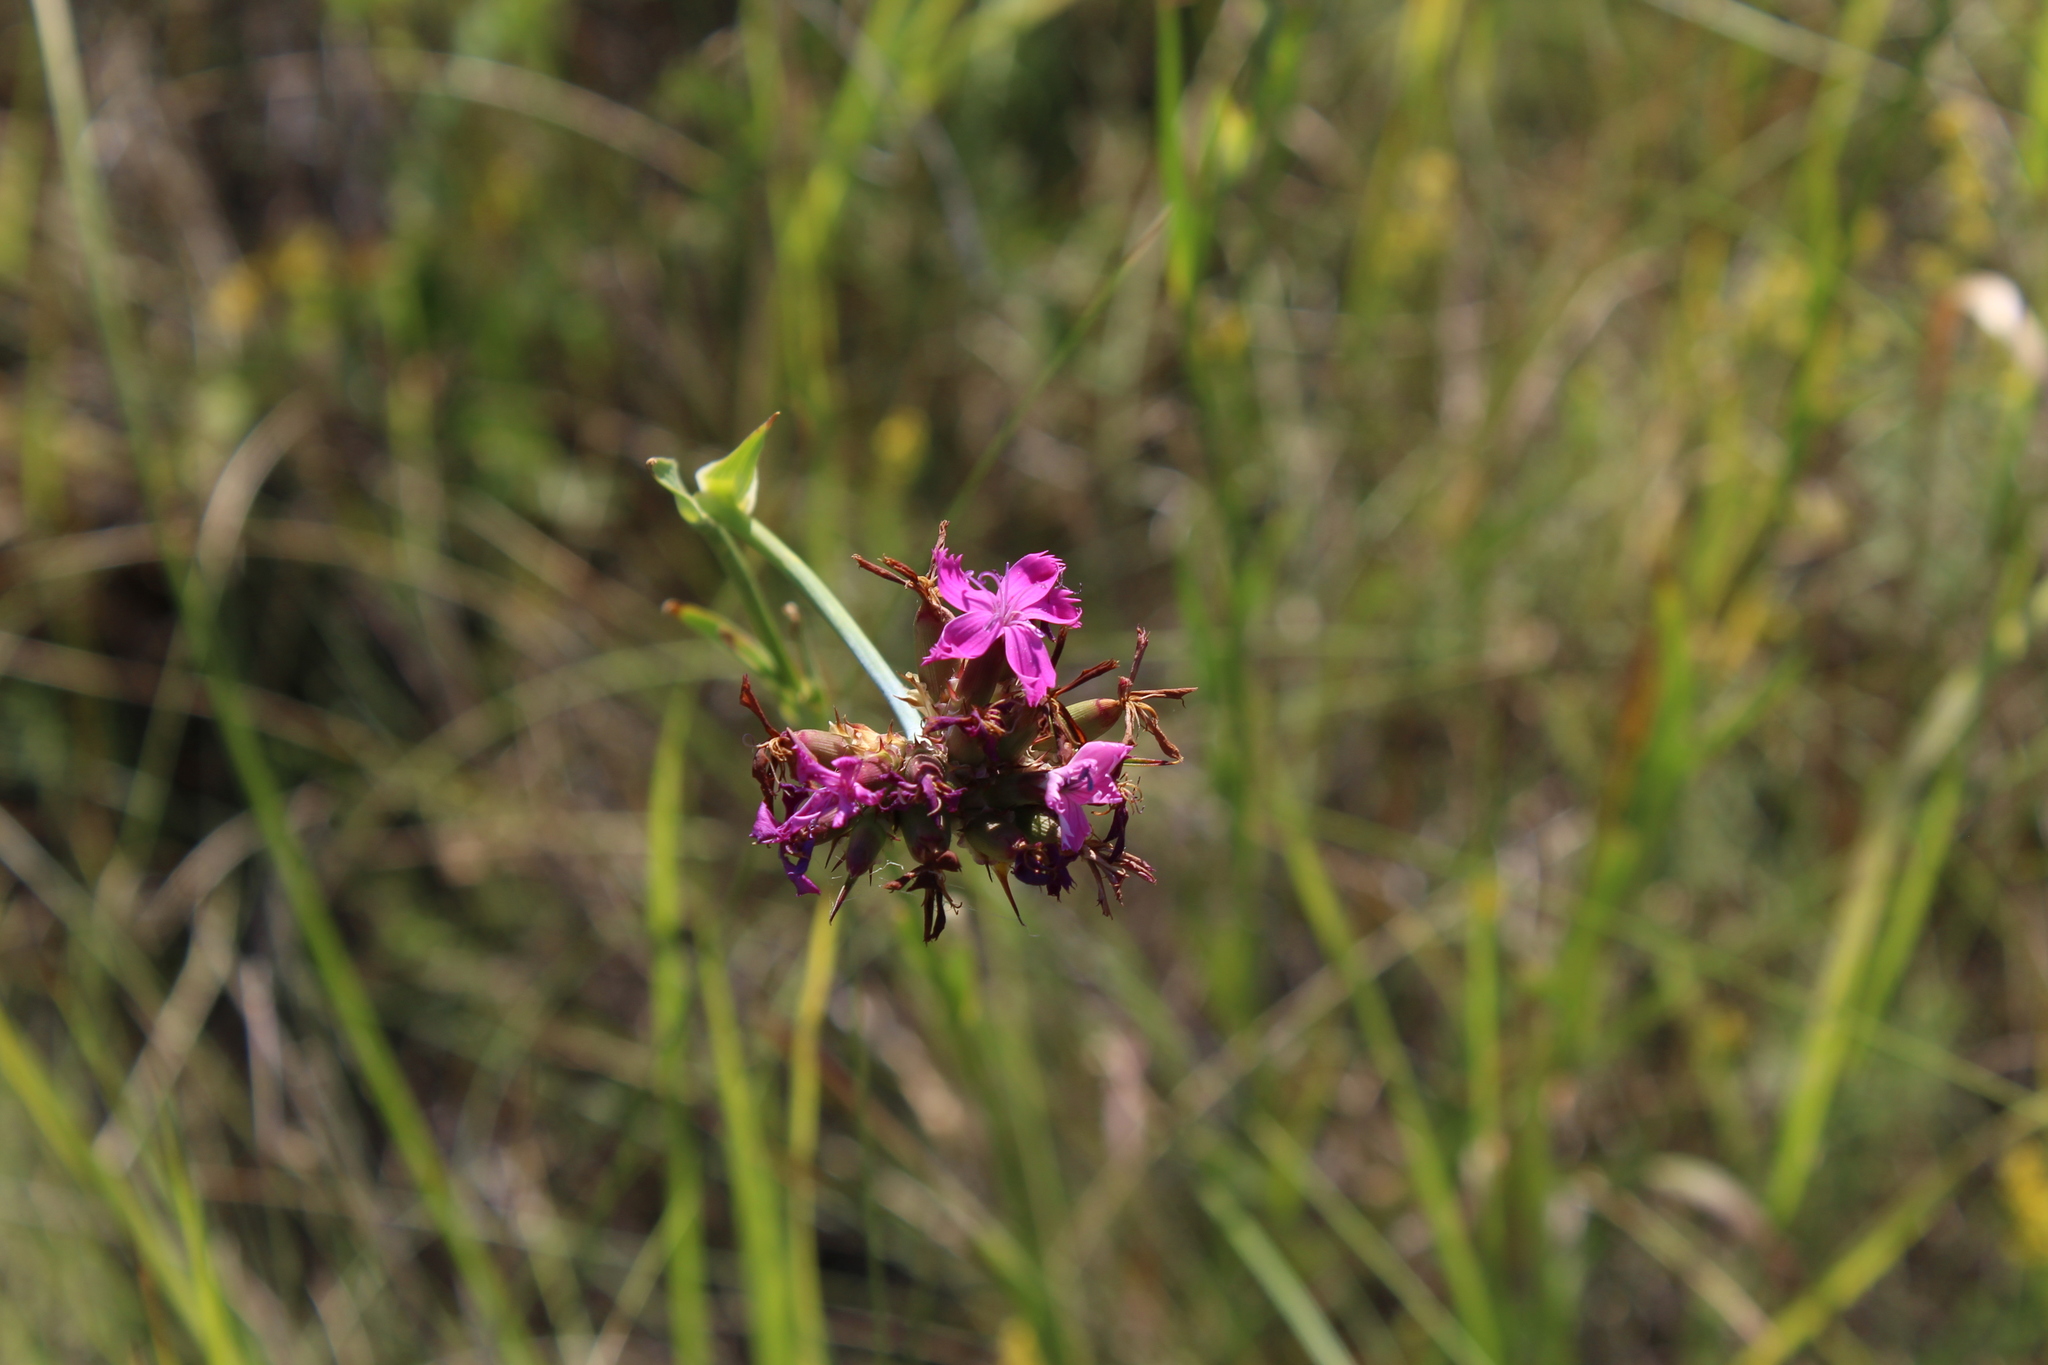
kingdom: Plantae
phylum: Tracheophyta
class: Magnoliopsida
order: Caryophyllales
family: Caryophyllaceae
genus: Dianthus
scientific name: Dianthus capitatus
